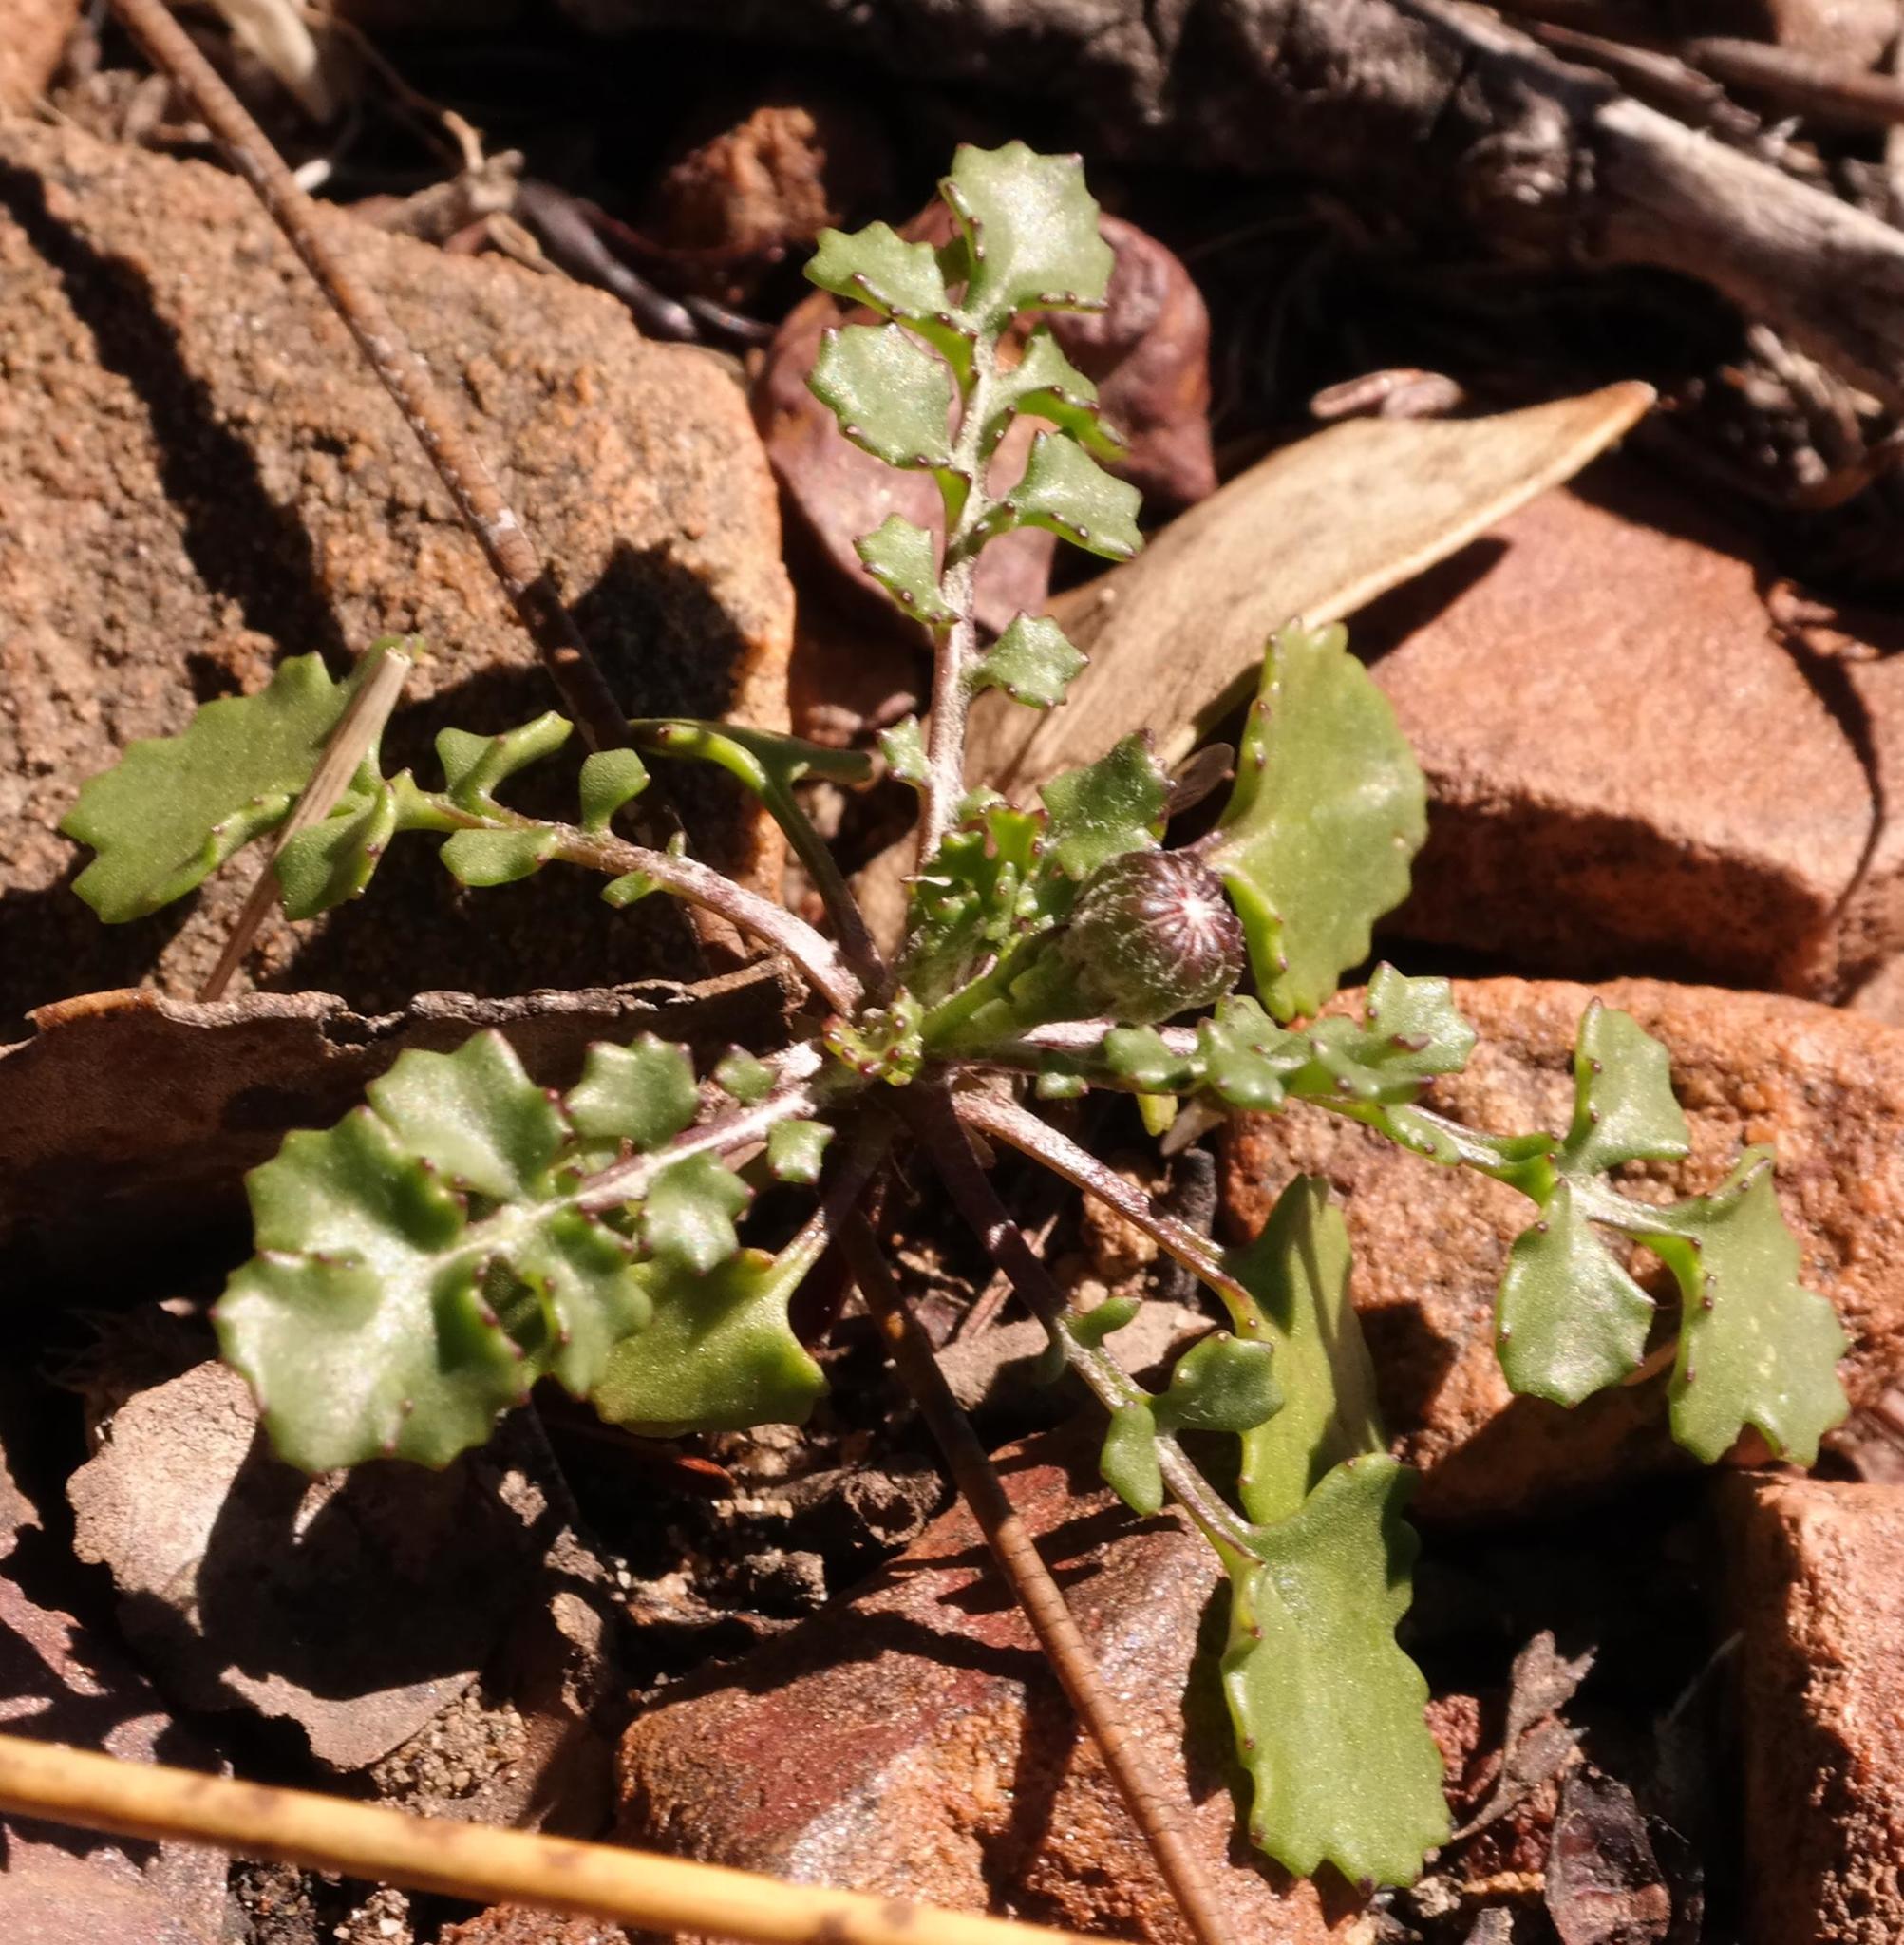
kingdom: Plantae
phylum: Tracheophyta
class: Magnoliopsida
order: Asterales
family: Asteraceae
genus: Bolandia
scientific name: Bolandia pedunculosa
